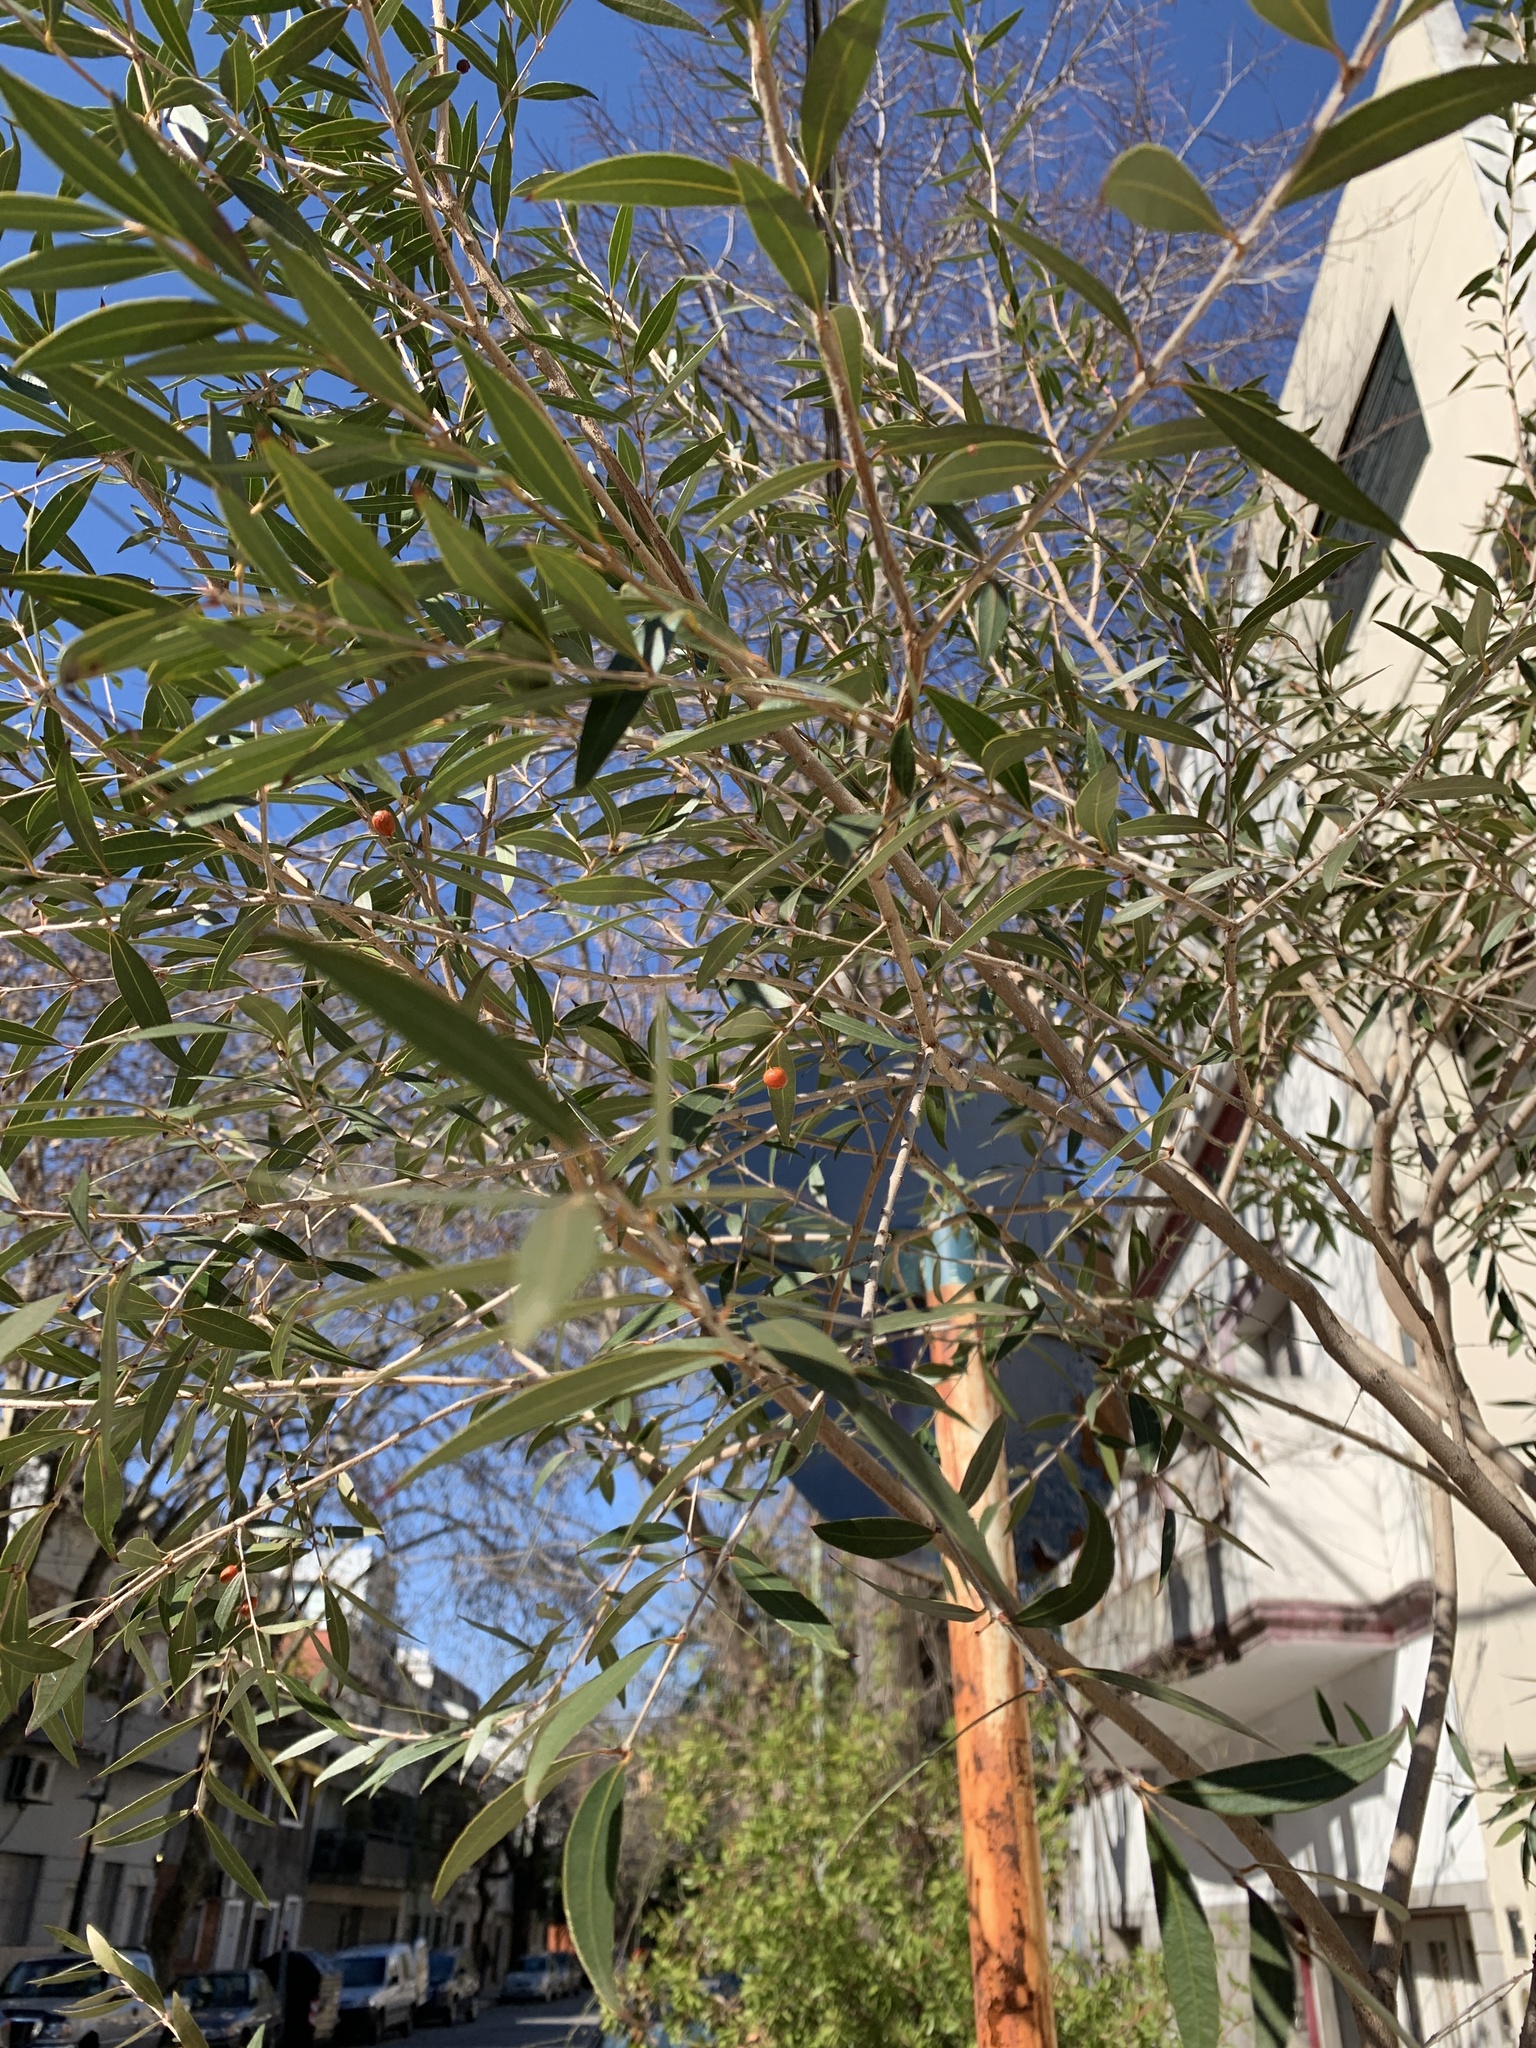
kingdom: Plantae
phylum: Tracheophyta
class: Magnoliopsida
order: Myrtales
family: Myrtaceae
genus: Blepharocalyx
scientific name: Blepharocalyx salicifolius
